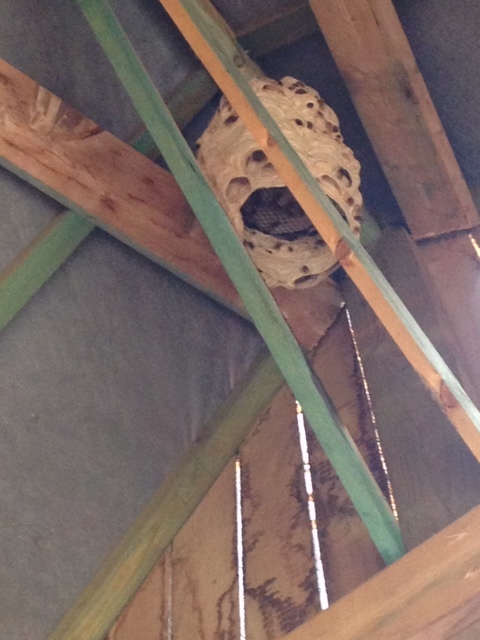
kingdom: Animalia
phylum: Arthropoda
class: Insecta
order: Hymenoptera
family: Vespidae
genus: Vespa
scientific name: Vespa crabro
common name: Hornet
